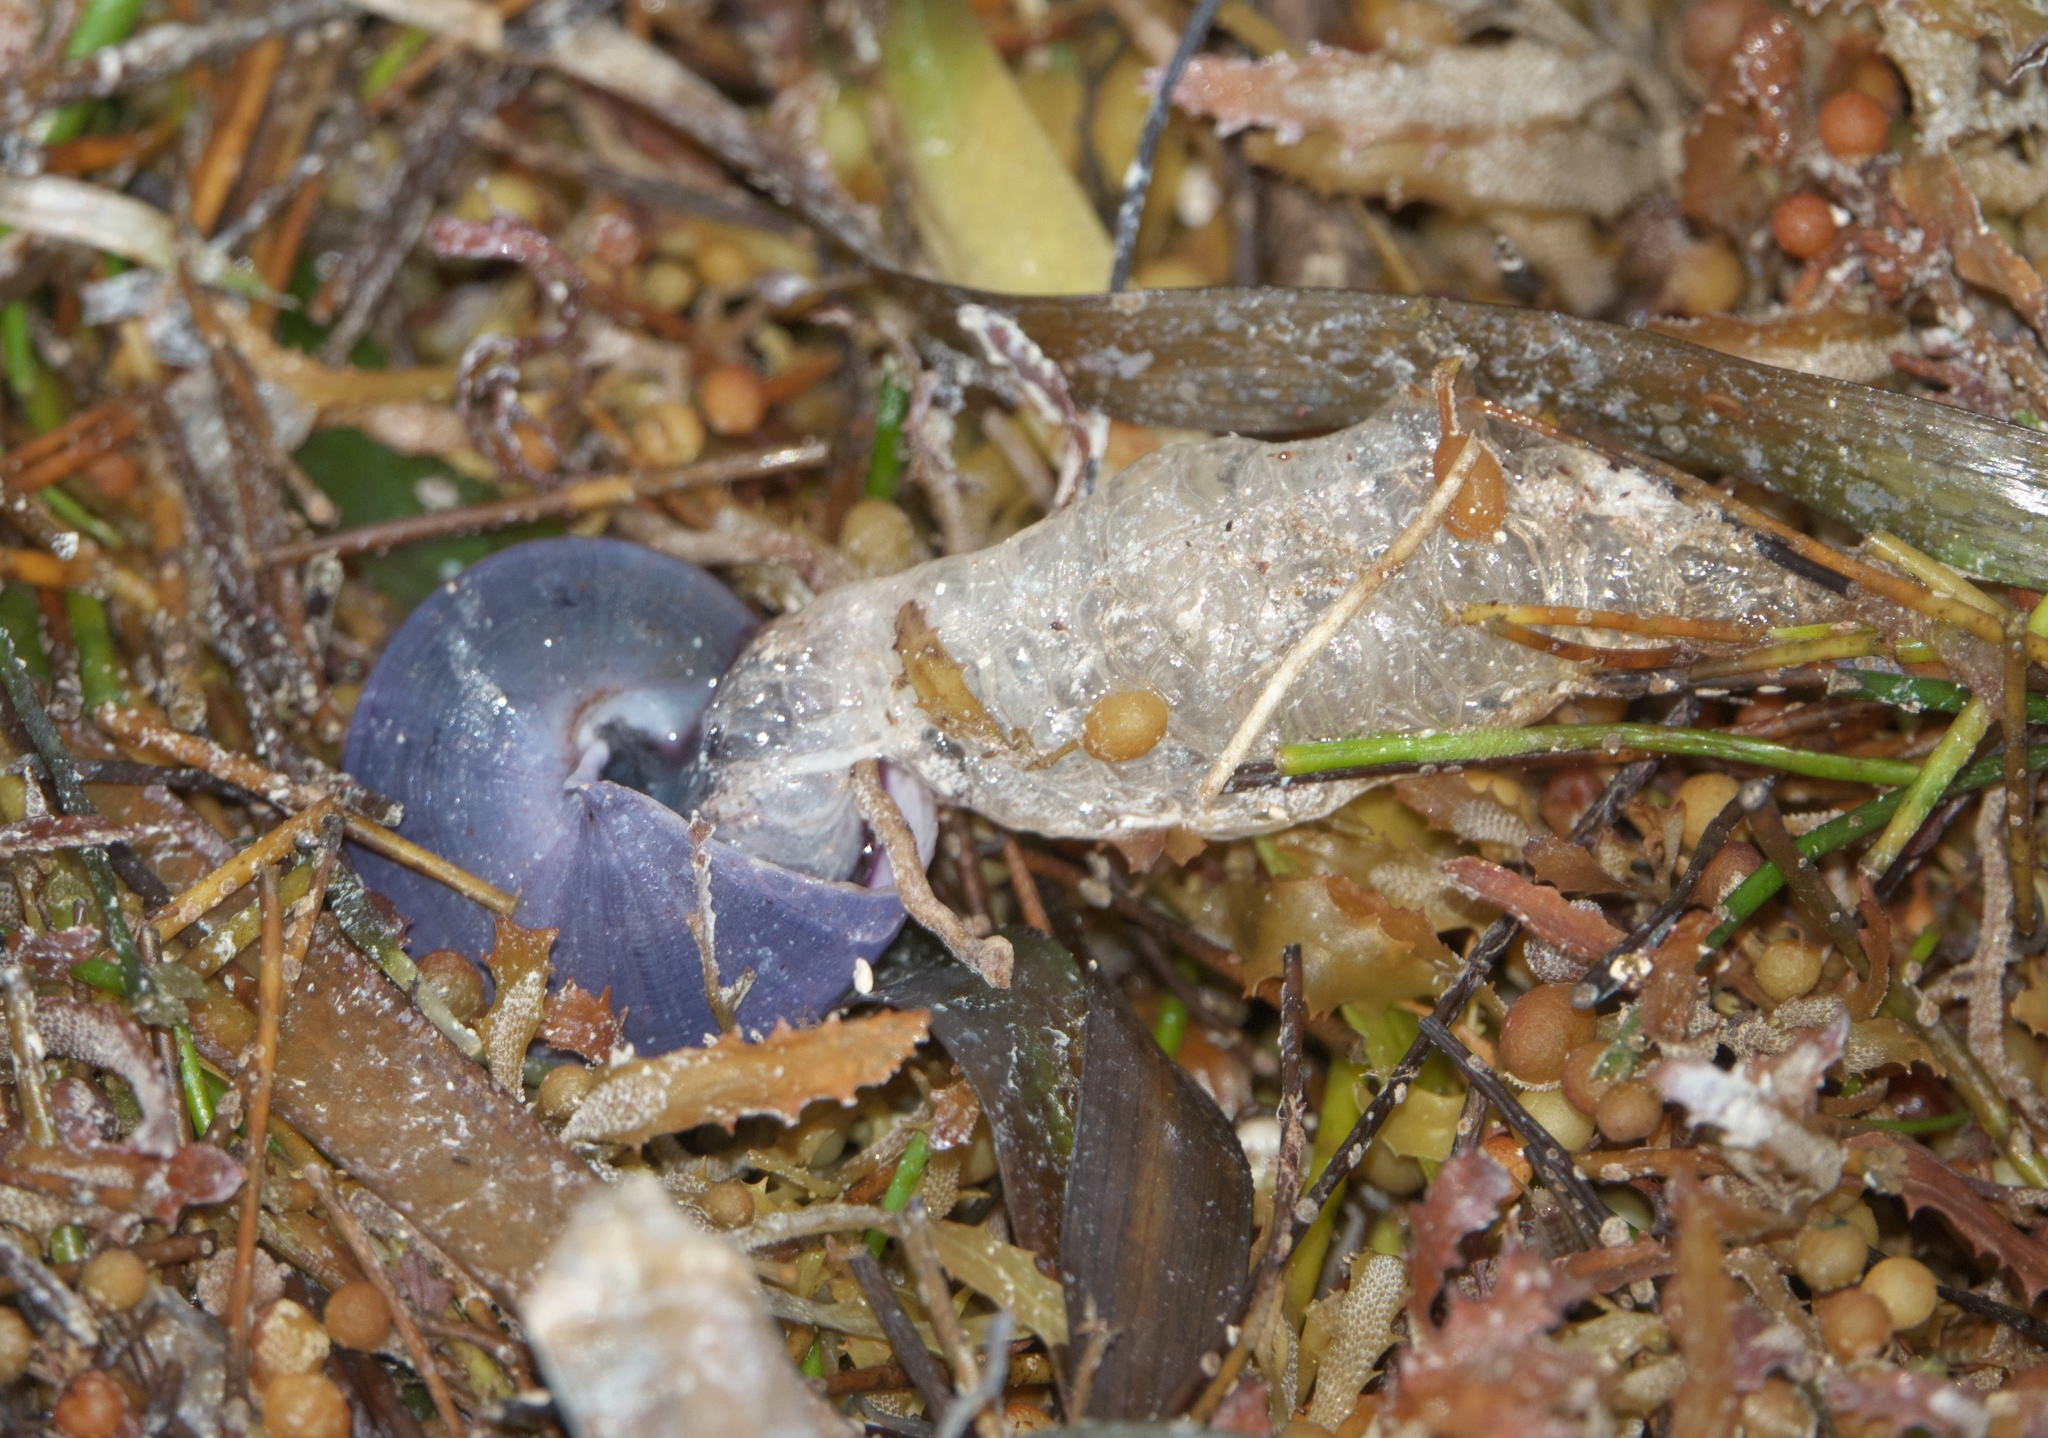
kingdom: Animalia
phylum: Mollusca
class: Gastropoda
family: Epitoniidae
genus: Janthina
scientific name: Janthina janthina
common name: Common janthina
